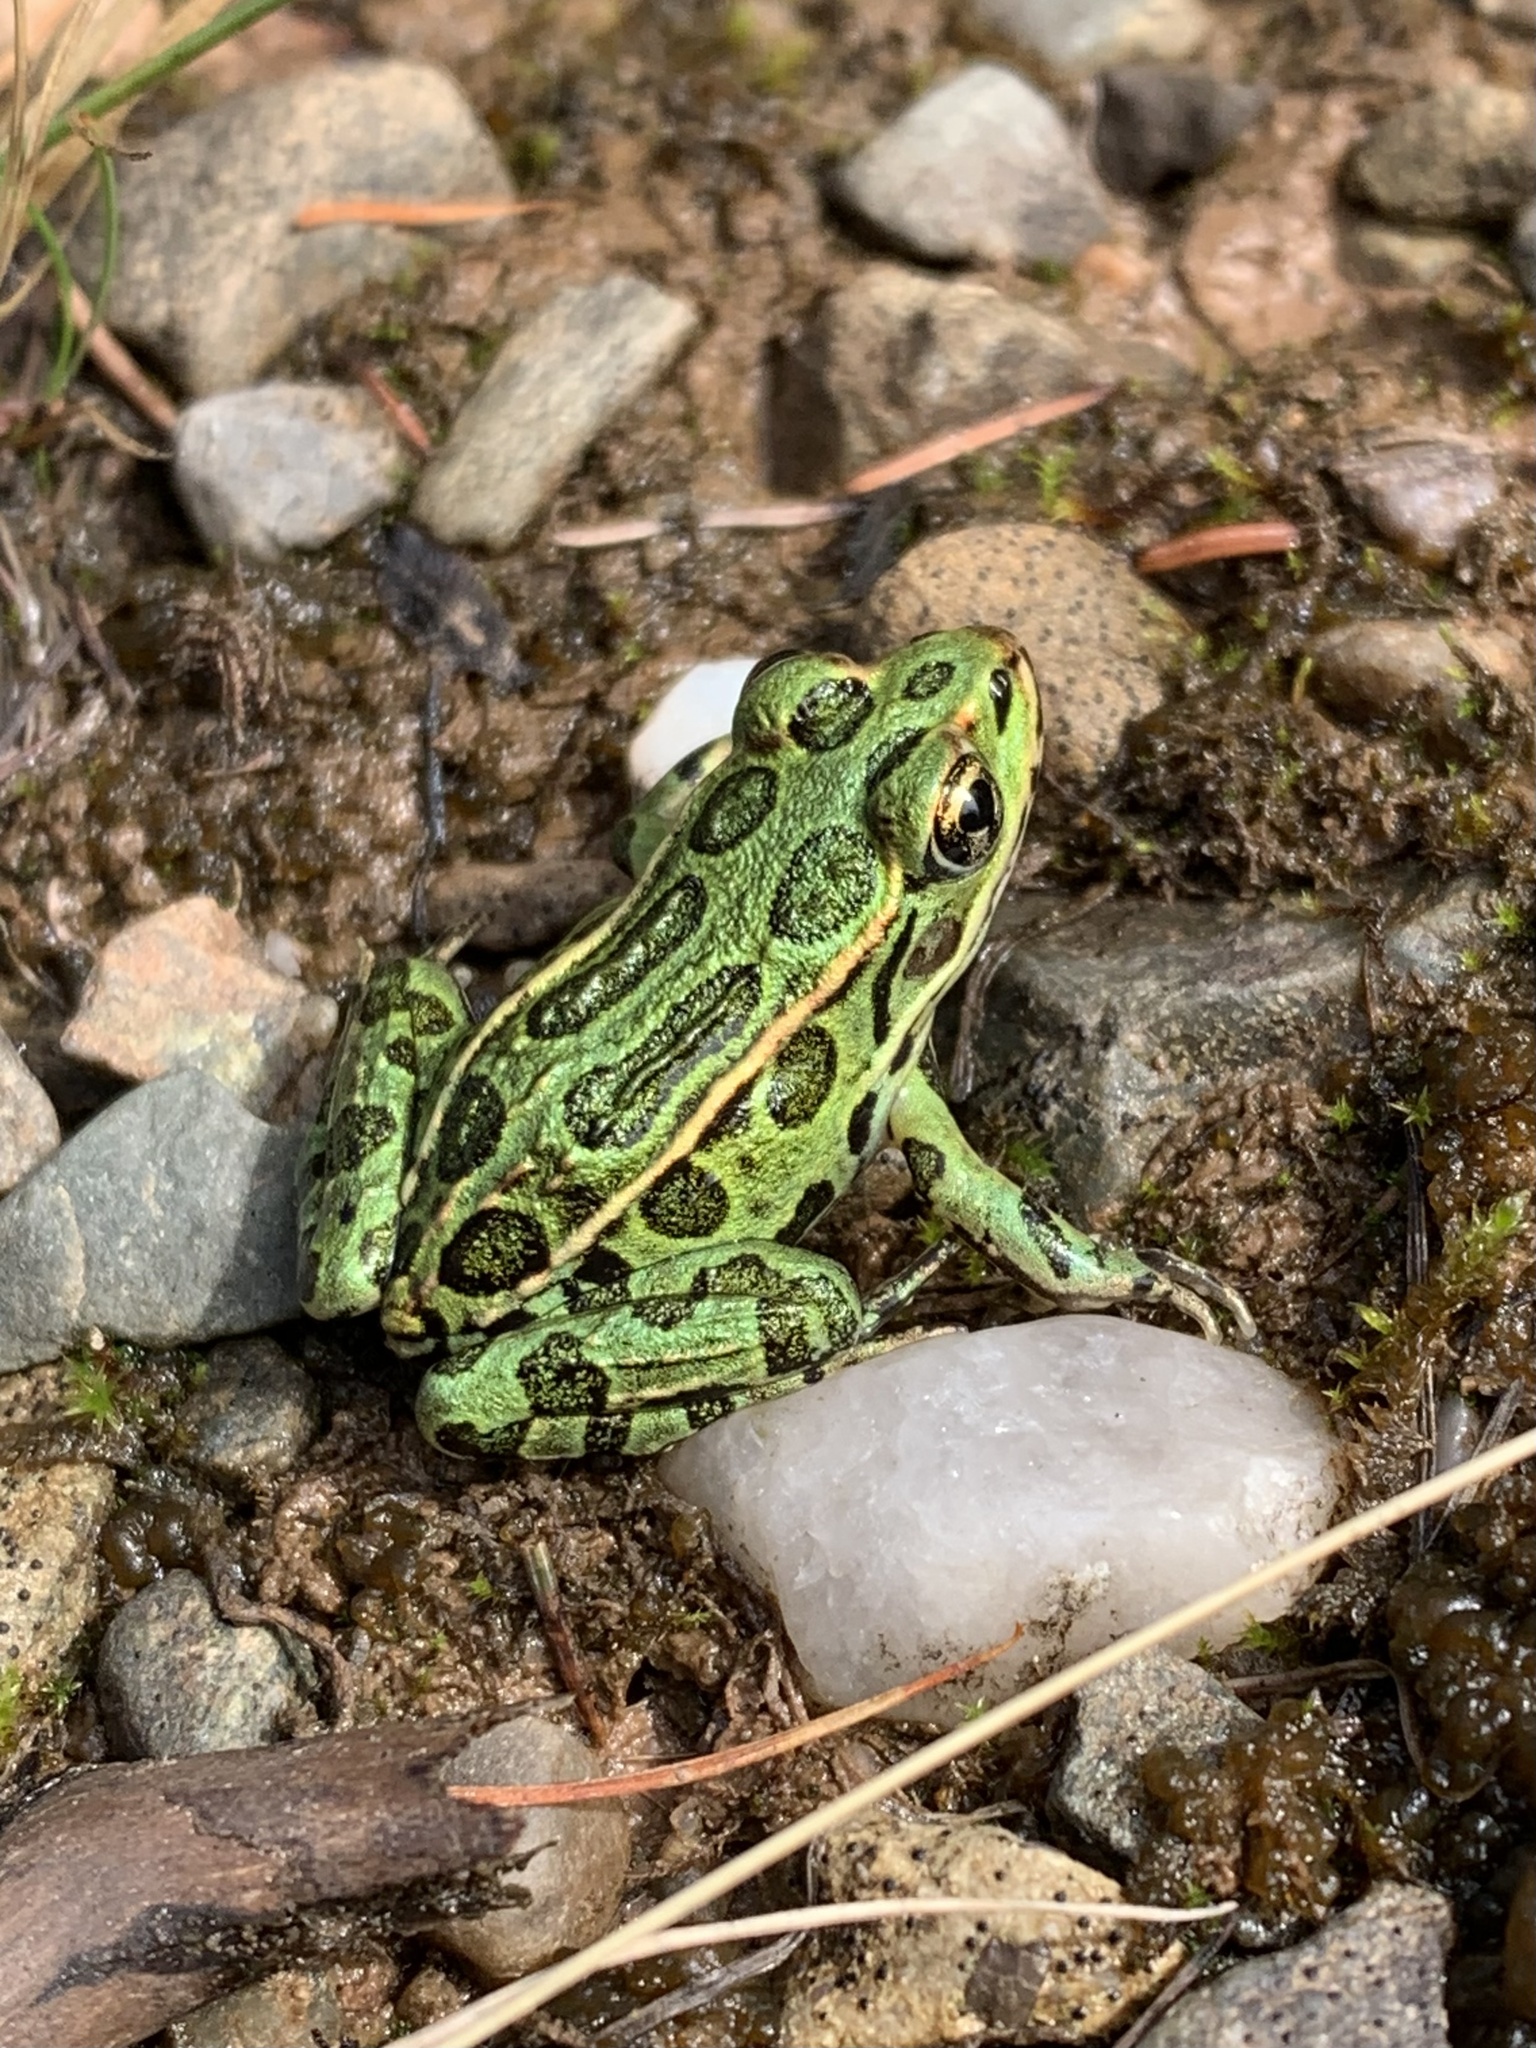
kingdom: Animalia
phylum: Chordata
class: Amphibia
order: Anura
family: Ranidae
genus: Lithobates
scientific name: Lithobates pipiens
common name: Northern leopard frog
